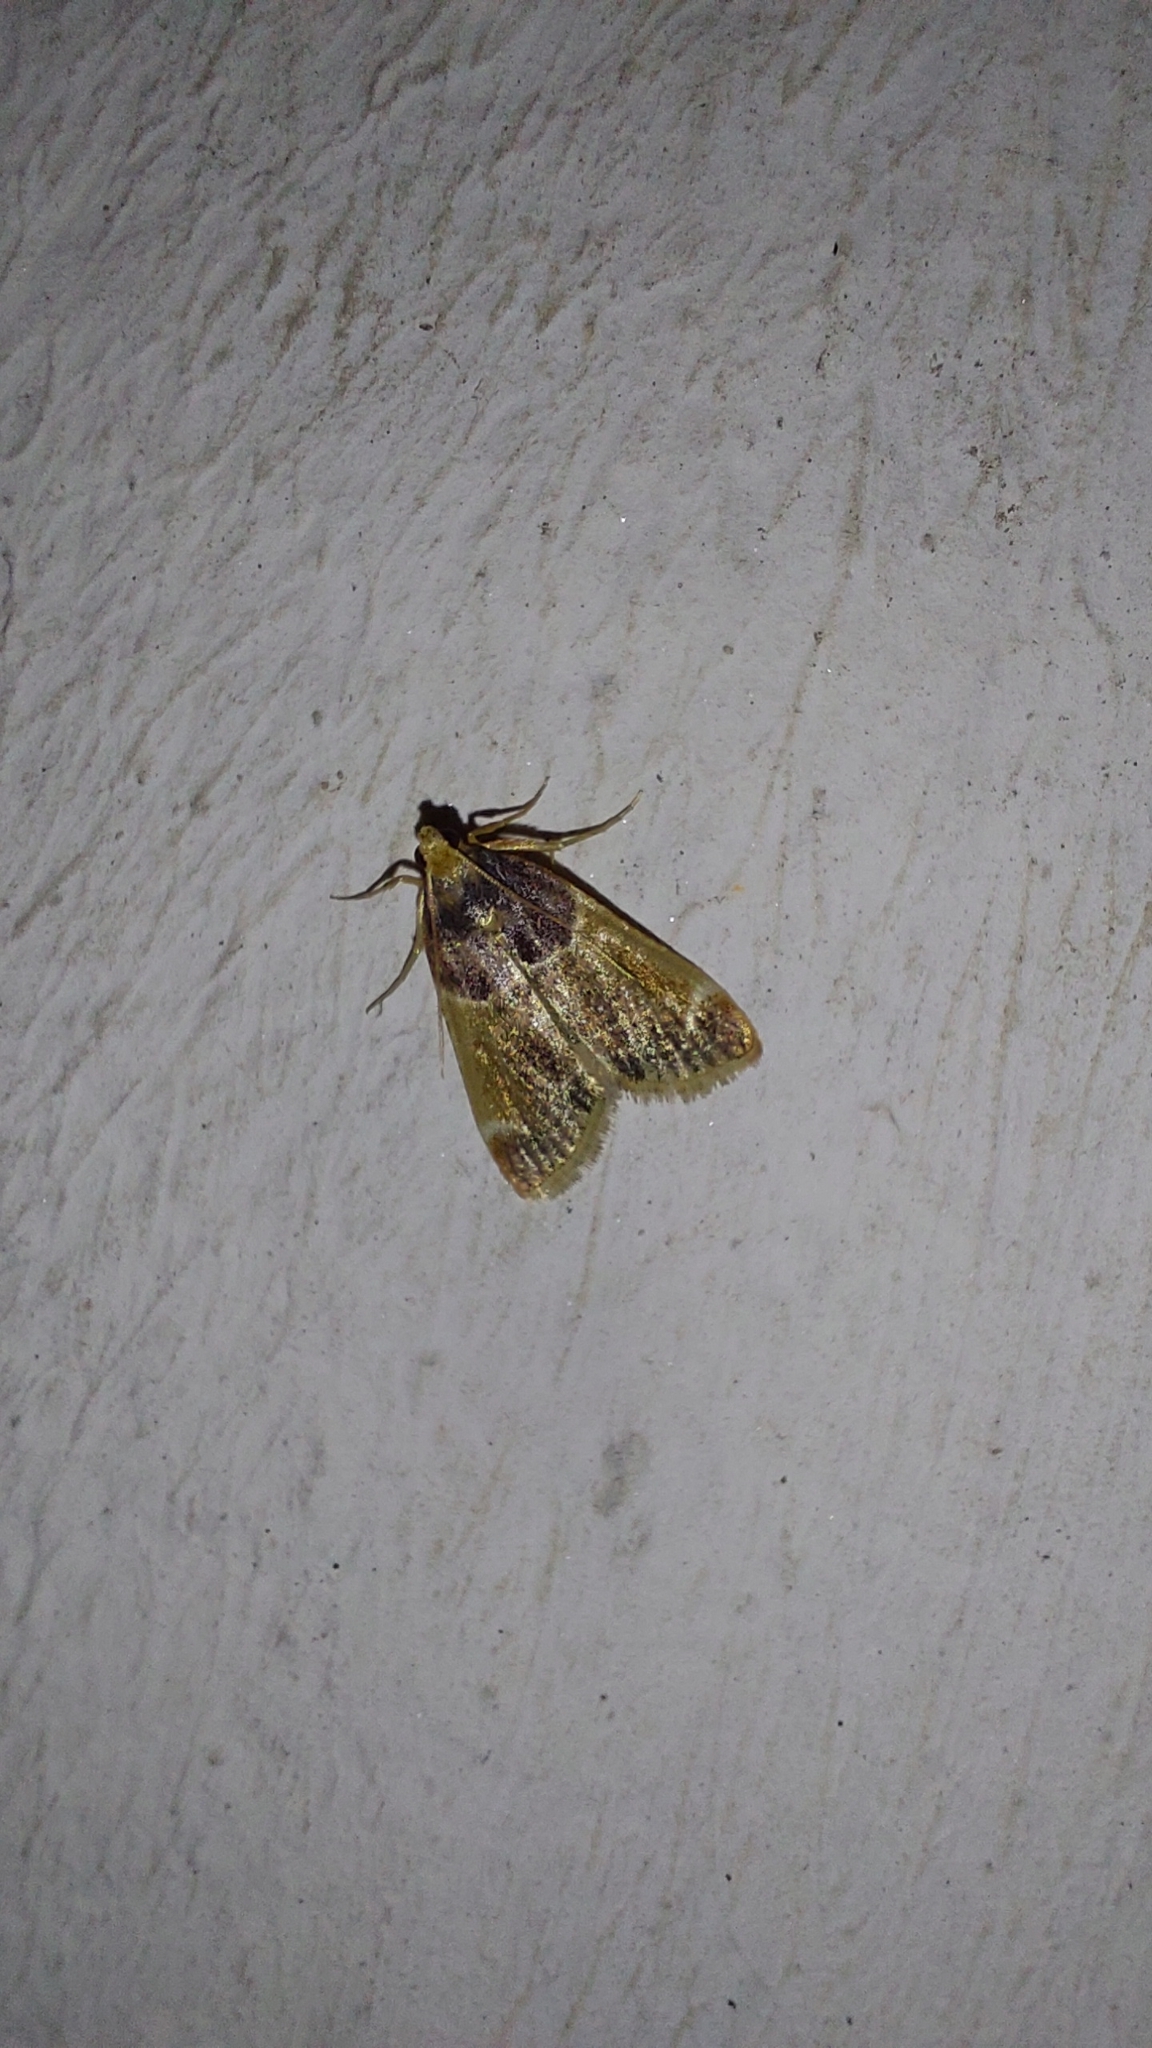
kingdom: Animalia
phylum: Arthropoda
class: Insecta
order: Lepidoptera
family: Pyralidae
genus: Pyralis
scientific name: Pyralis farinalis
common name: Meal moth
